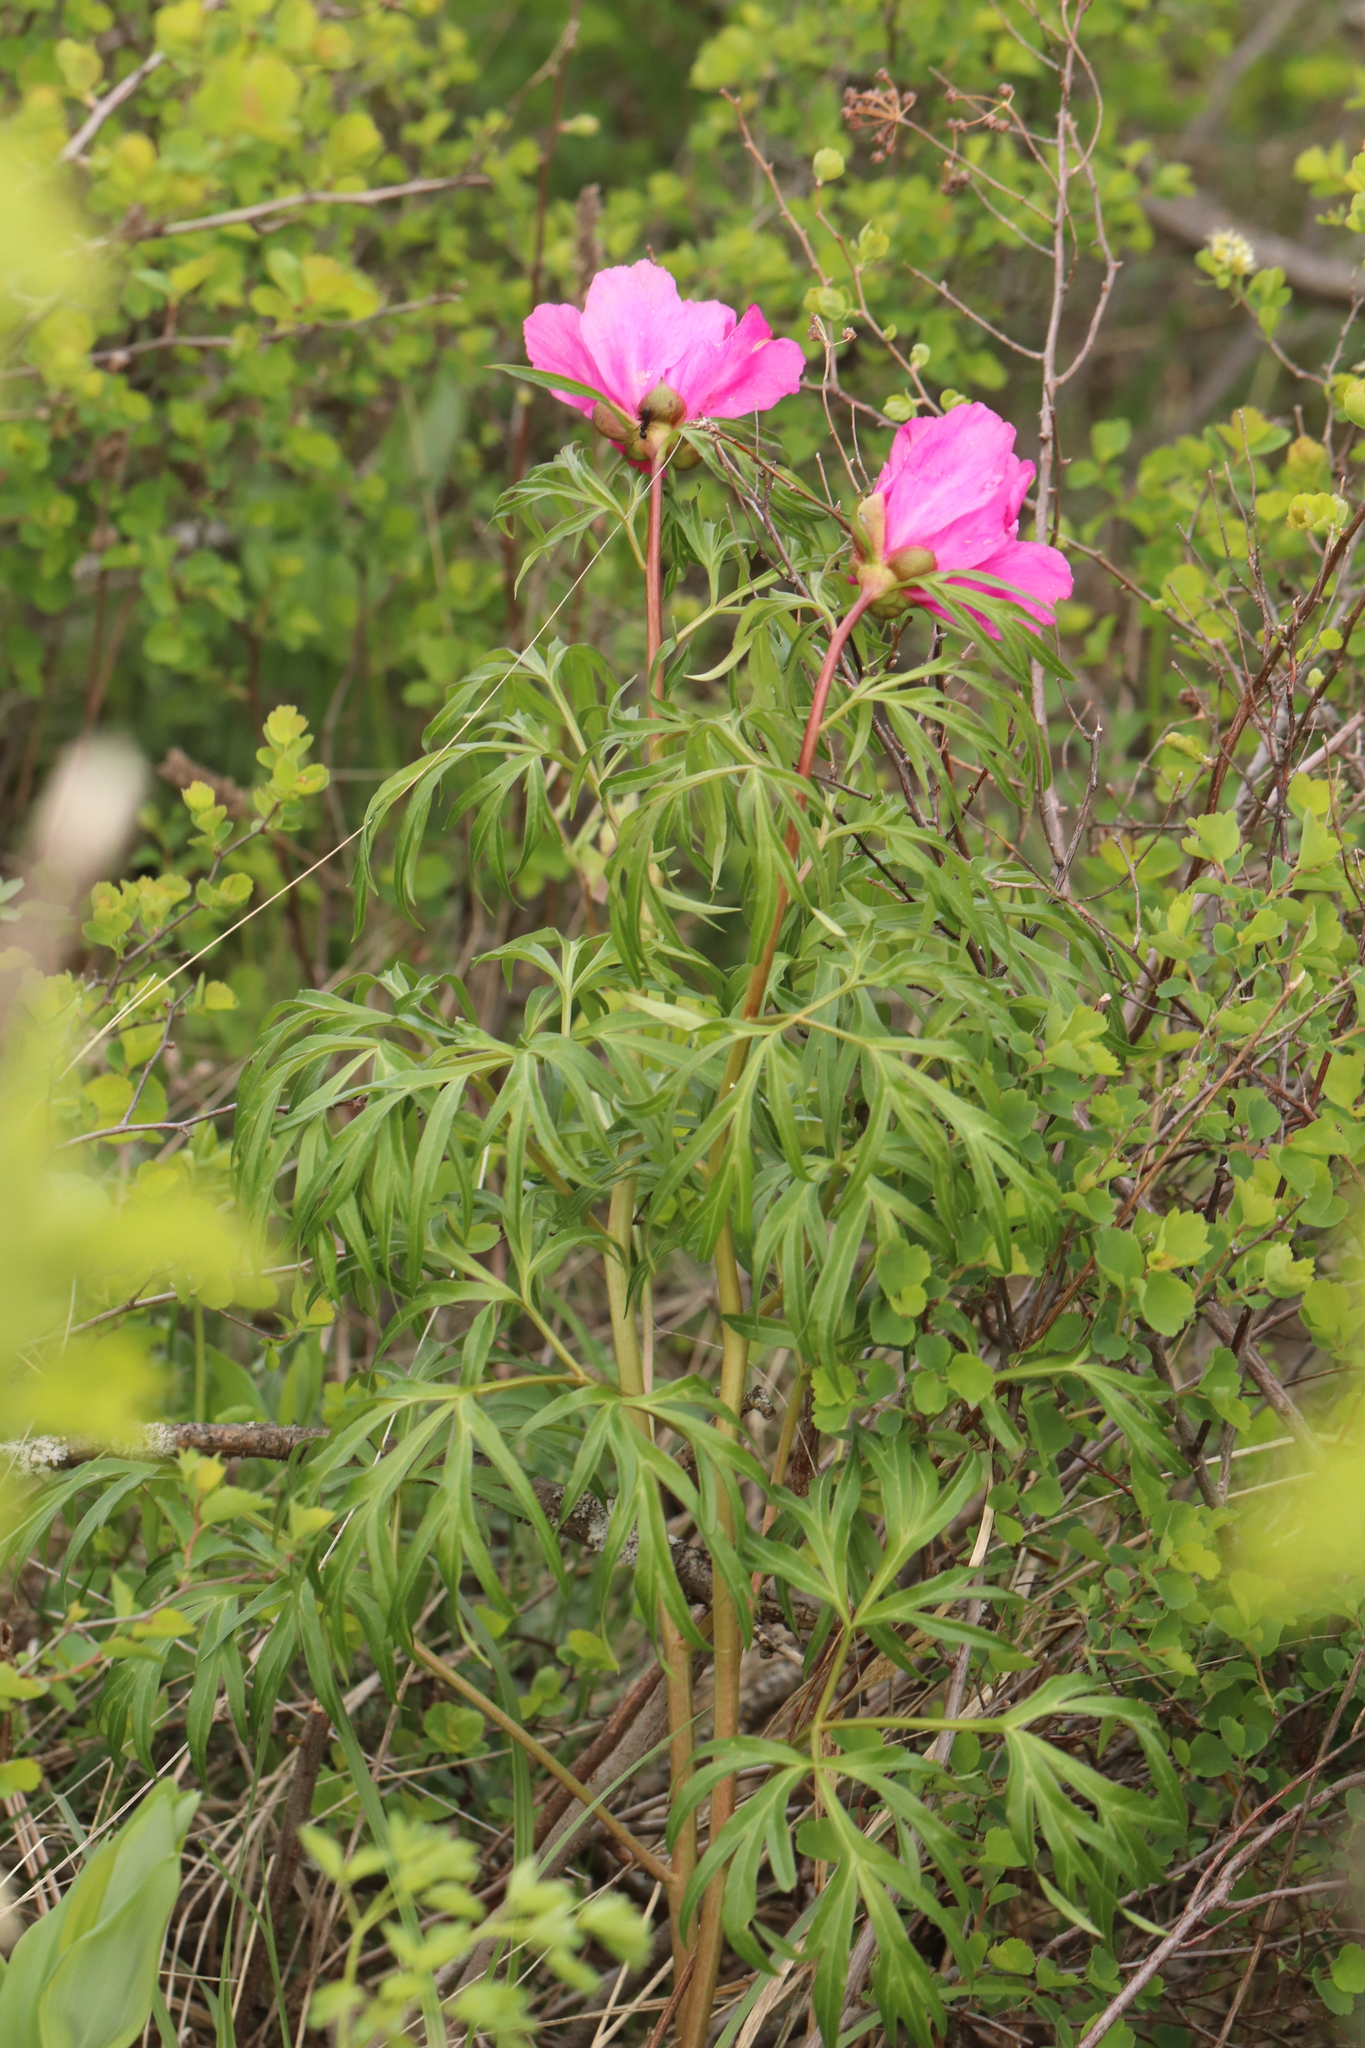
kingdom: Plantae
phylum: Tracheophyta
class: Magnoliopsida
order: Saxifragales
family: Paeoniaceae
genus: Paeonia
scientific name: Paeonia
